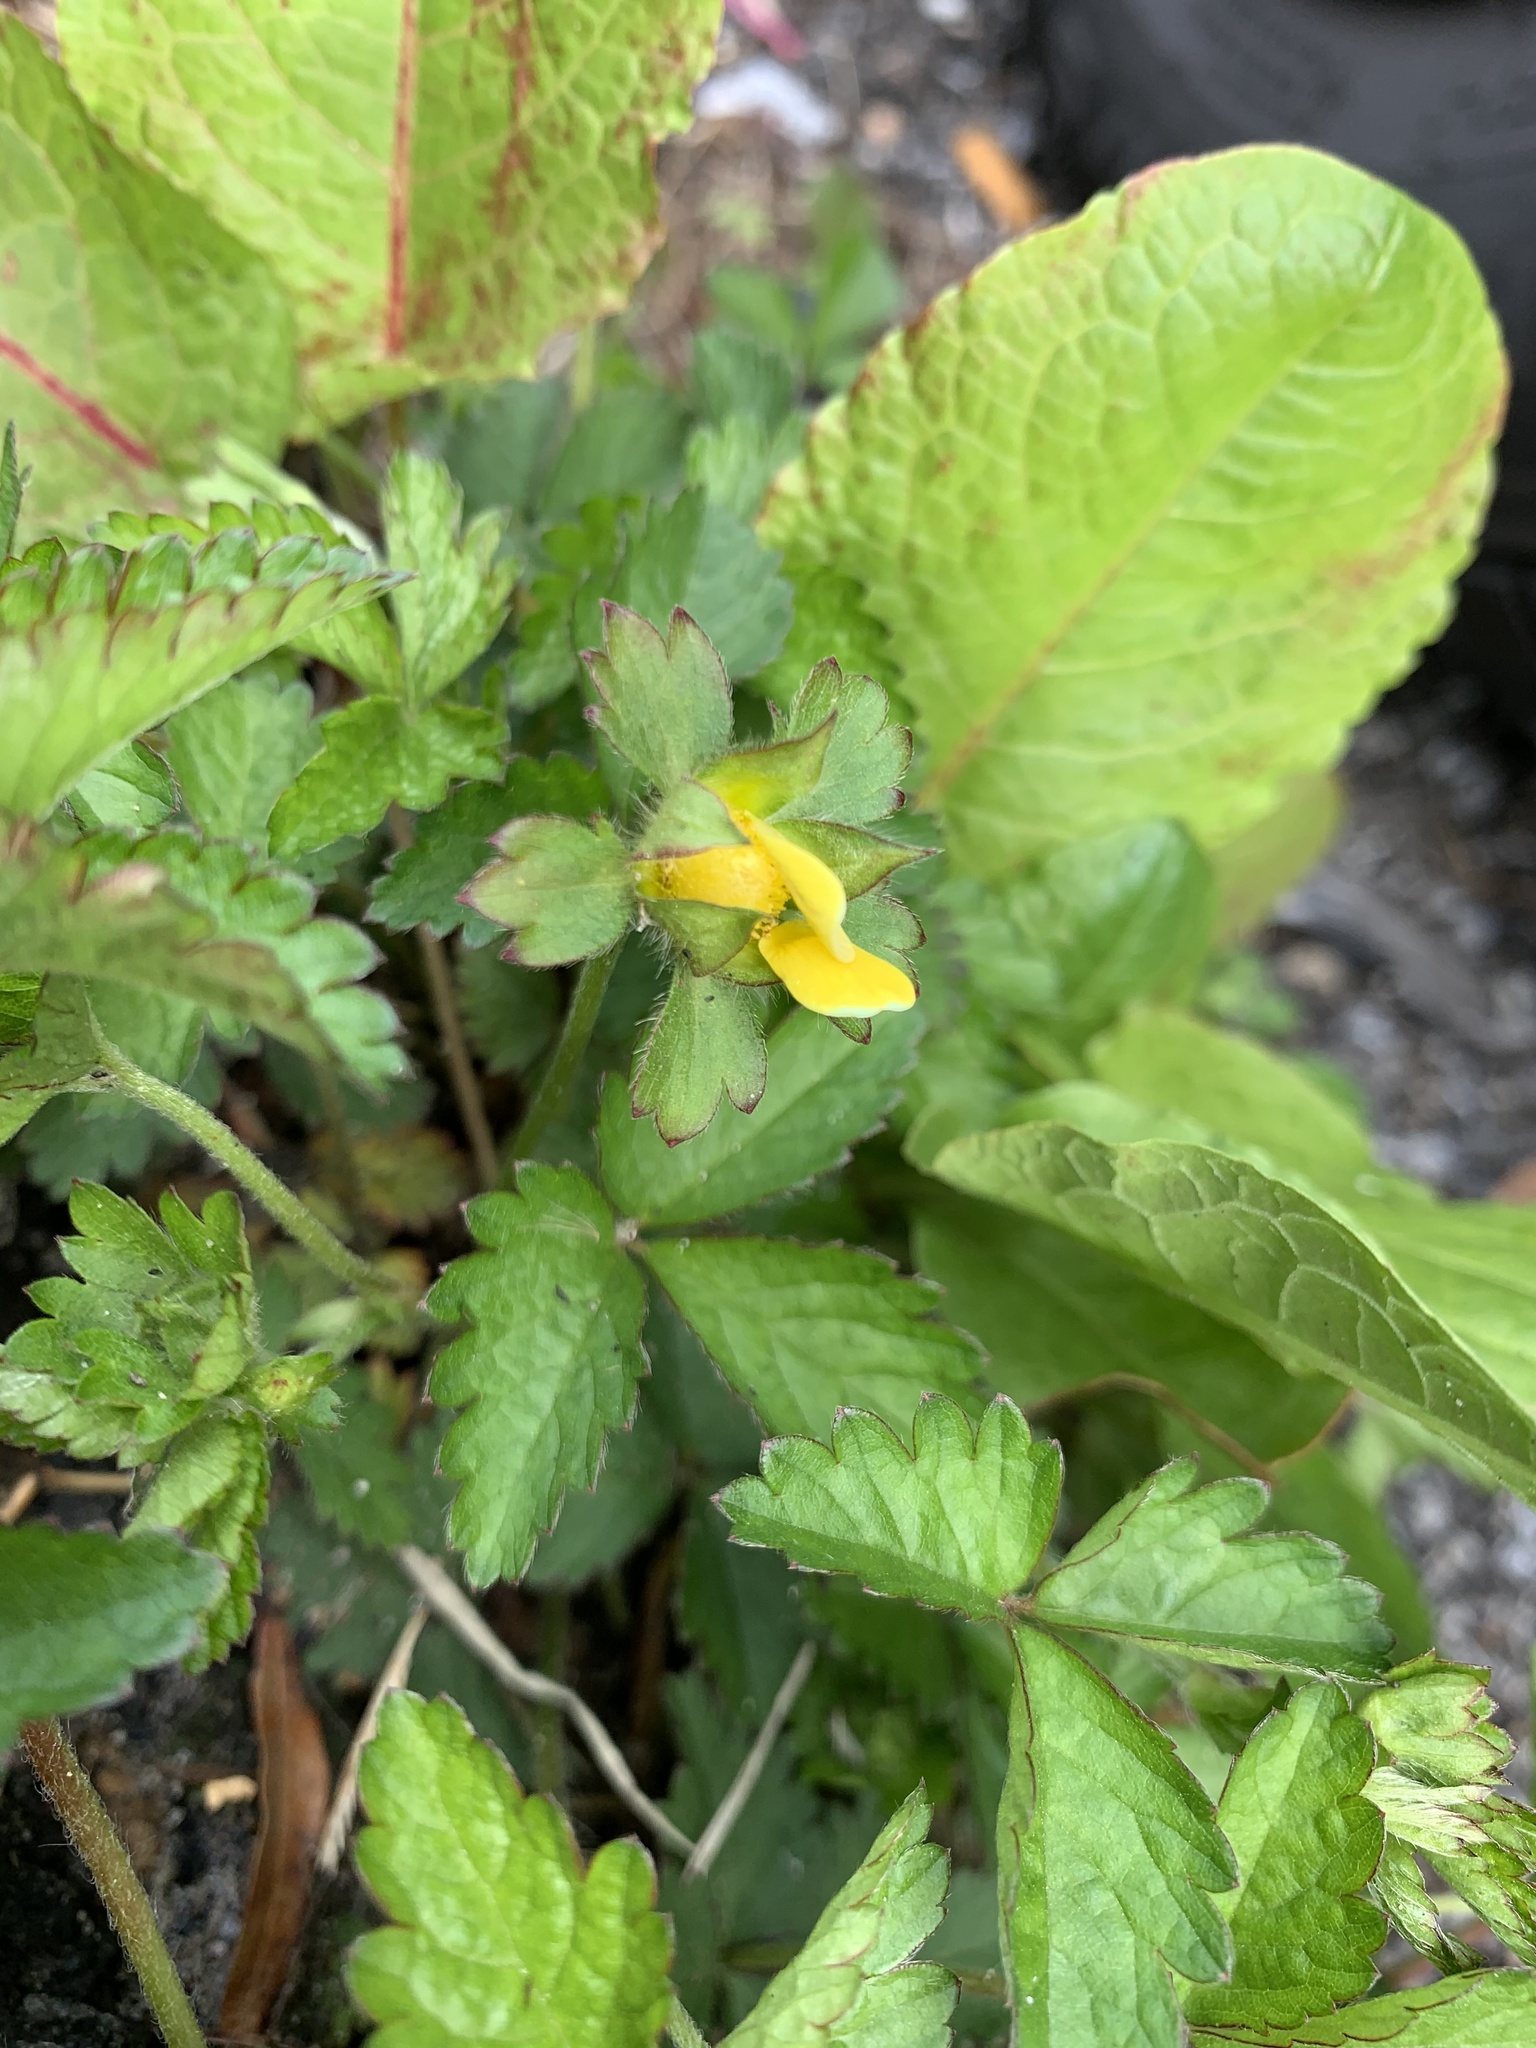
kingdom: Plantae
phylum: Tracheophyta
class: Magnoliopsida
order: Rosales
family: Rosaceae
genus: Potentilla
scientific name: Potentilla indica
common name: Yellow-flowered strawberry
